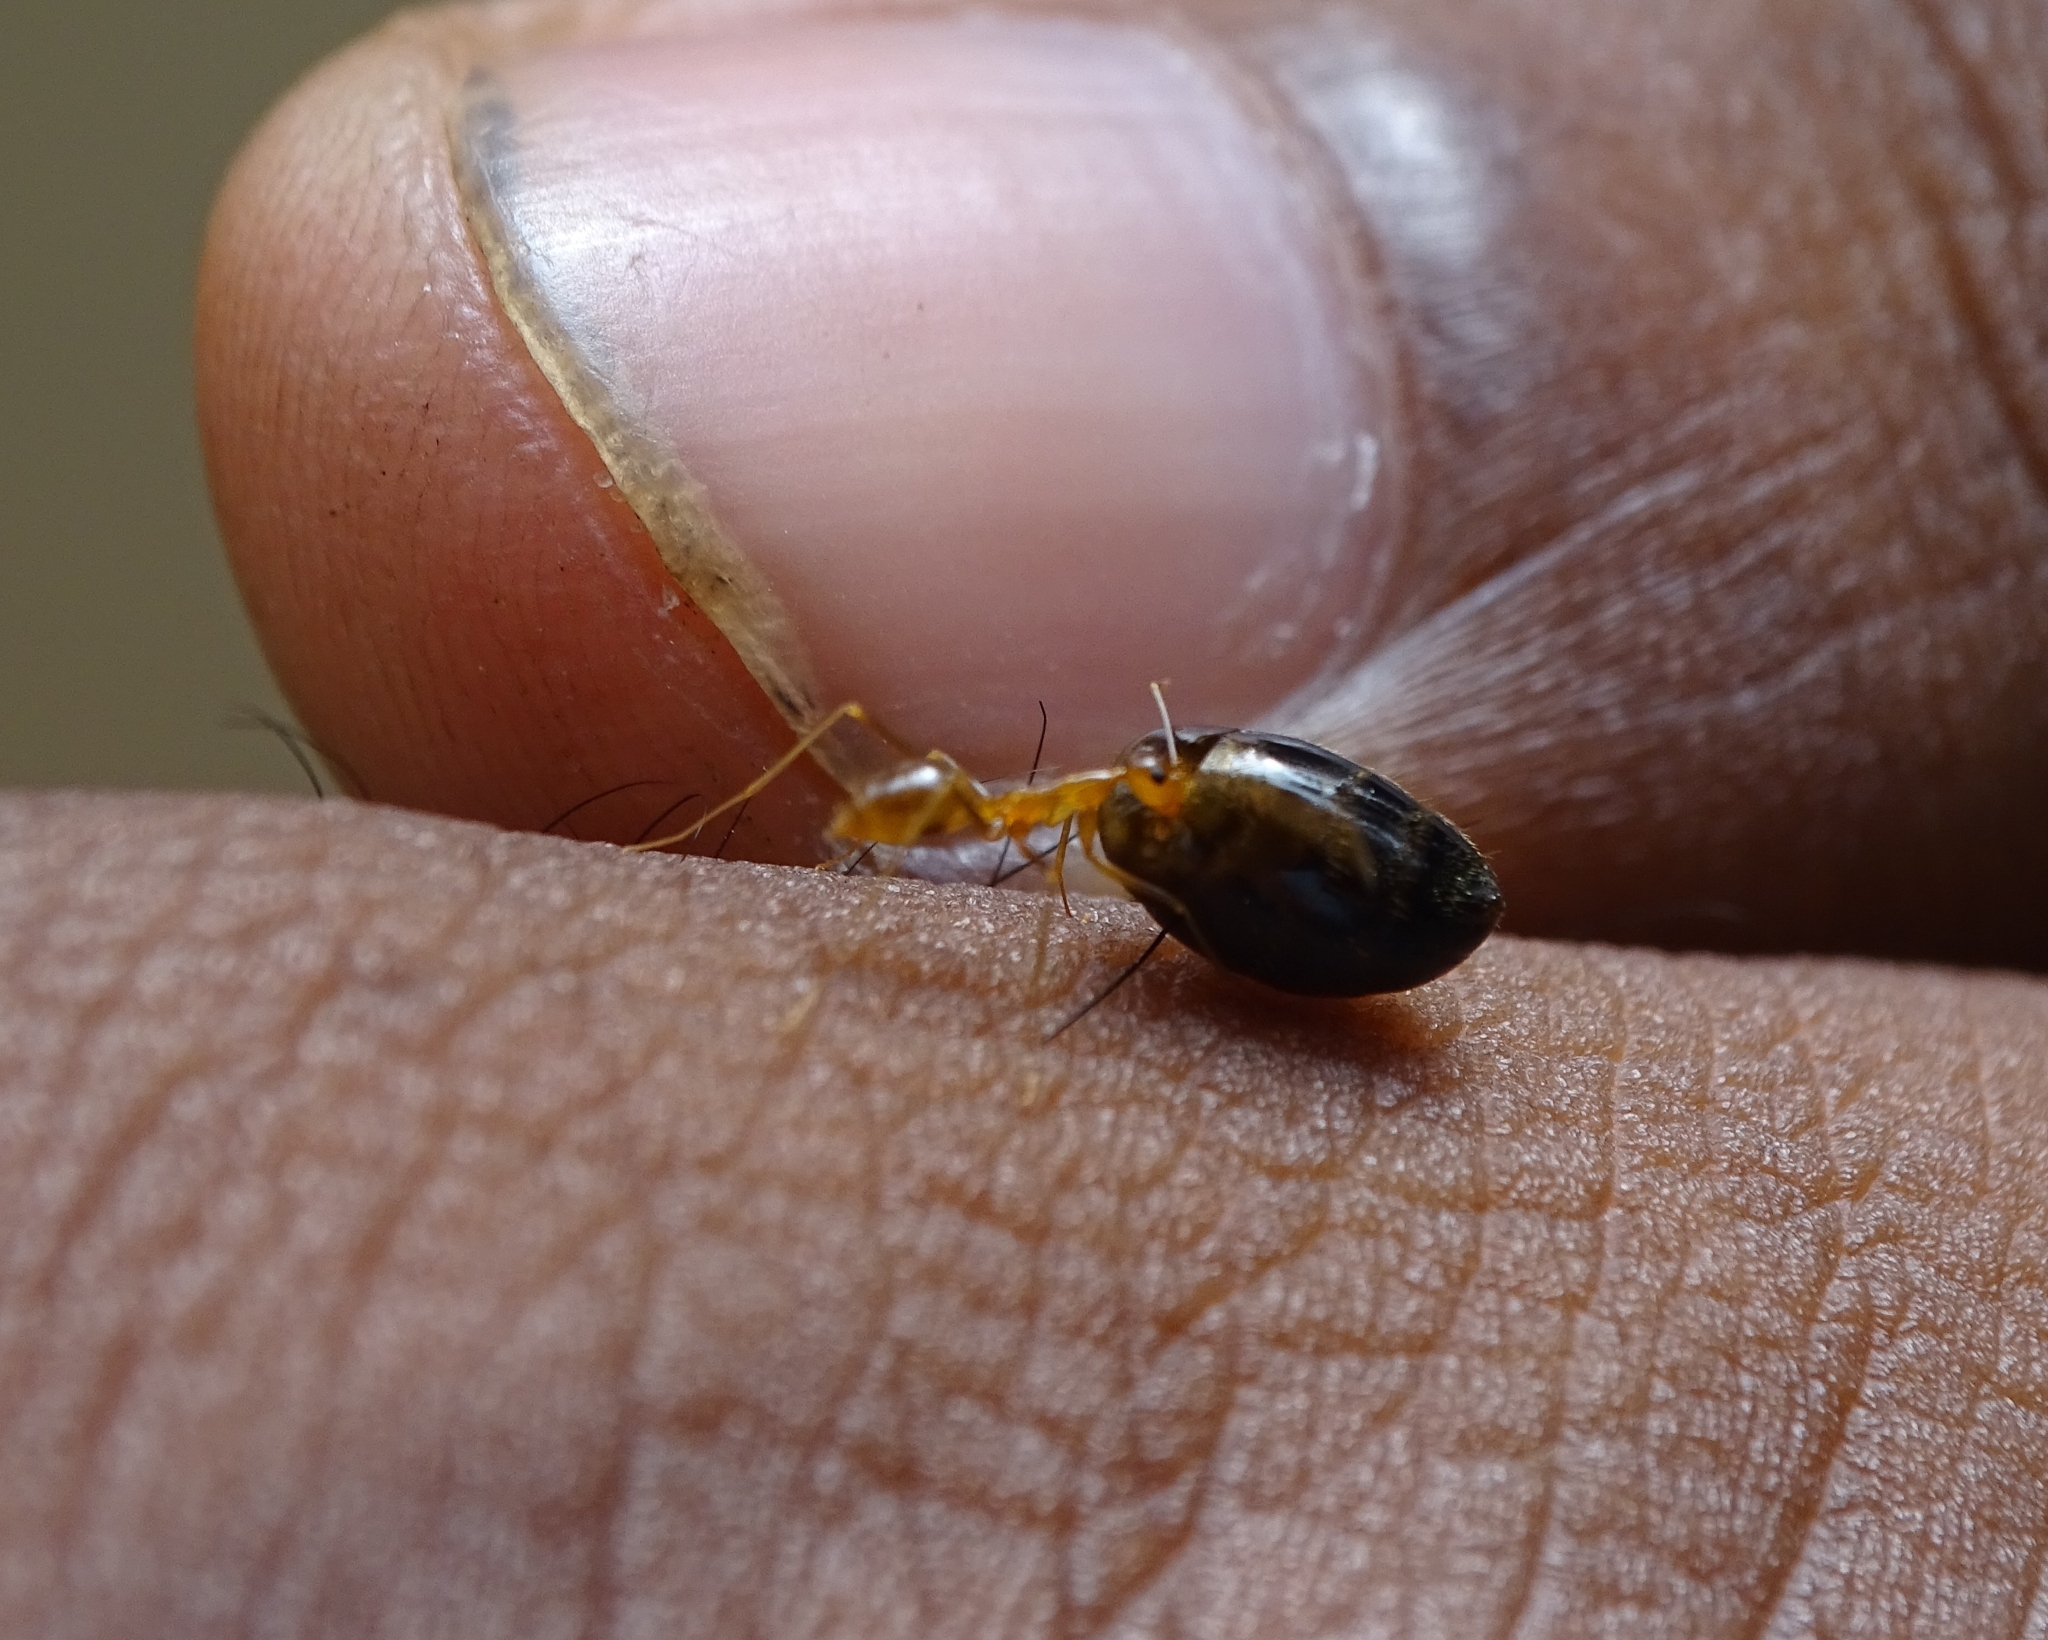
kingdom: Animalia
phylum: Arthropoda
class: Insecta
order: Hymenoptera
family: Formicidae
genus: Anoplolepis
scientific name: Anoplolepis gracilipes
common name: Ant
